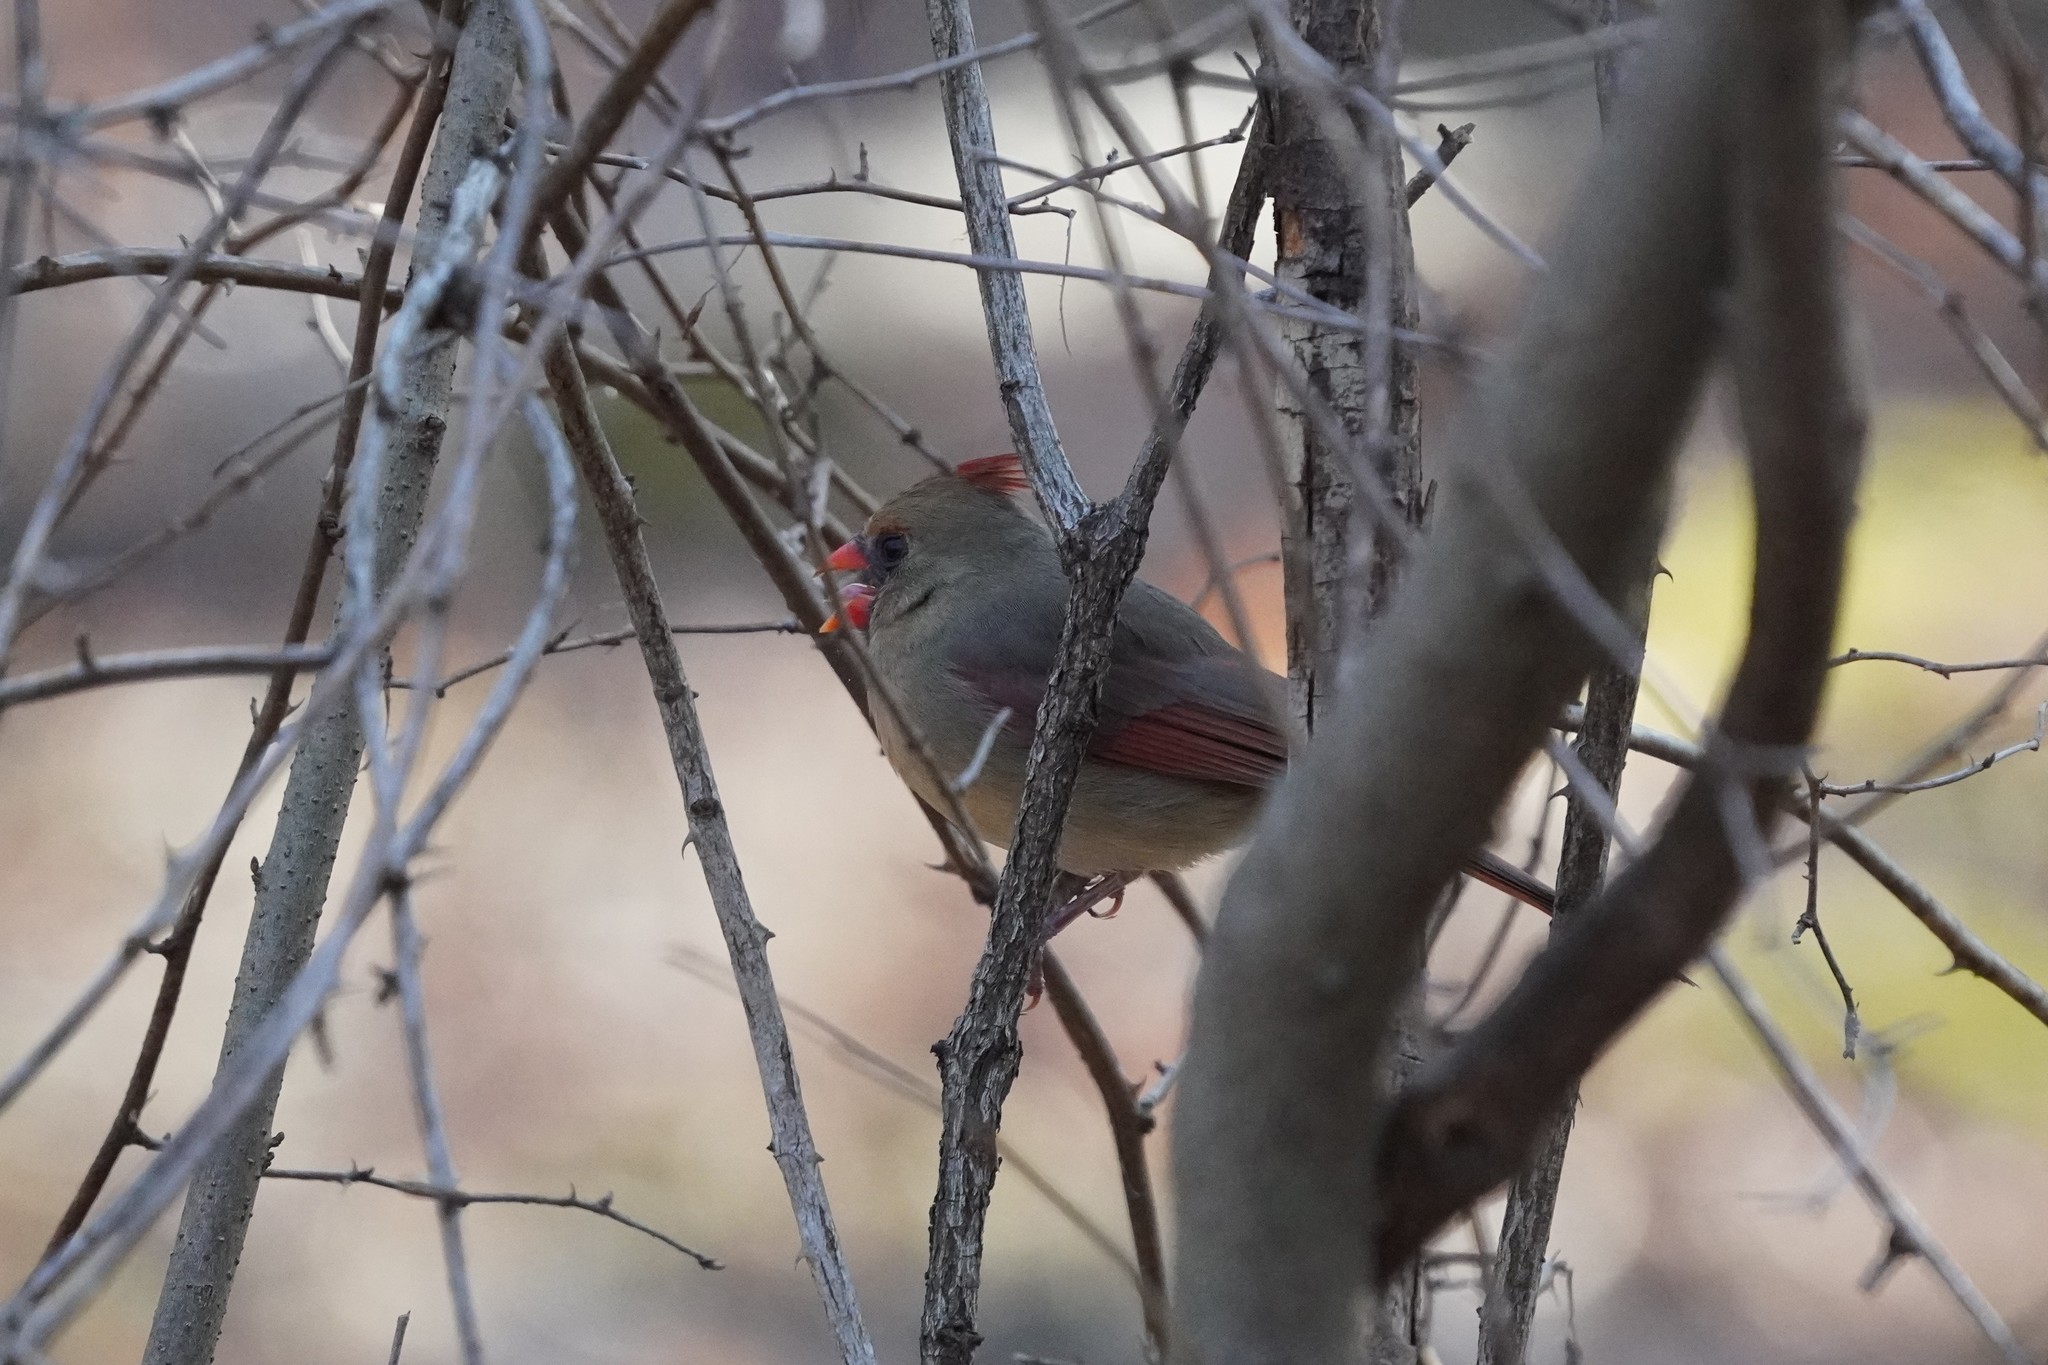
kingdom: Animalia
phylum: Chordata
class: Aves
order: Passeriformes
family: Cardinalidae
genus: Cardinalis
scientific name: Cardinalis cardinalis
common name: Northern cardinal
